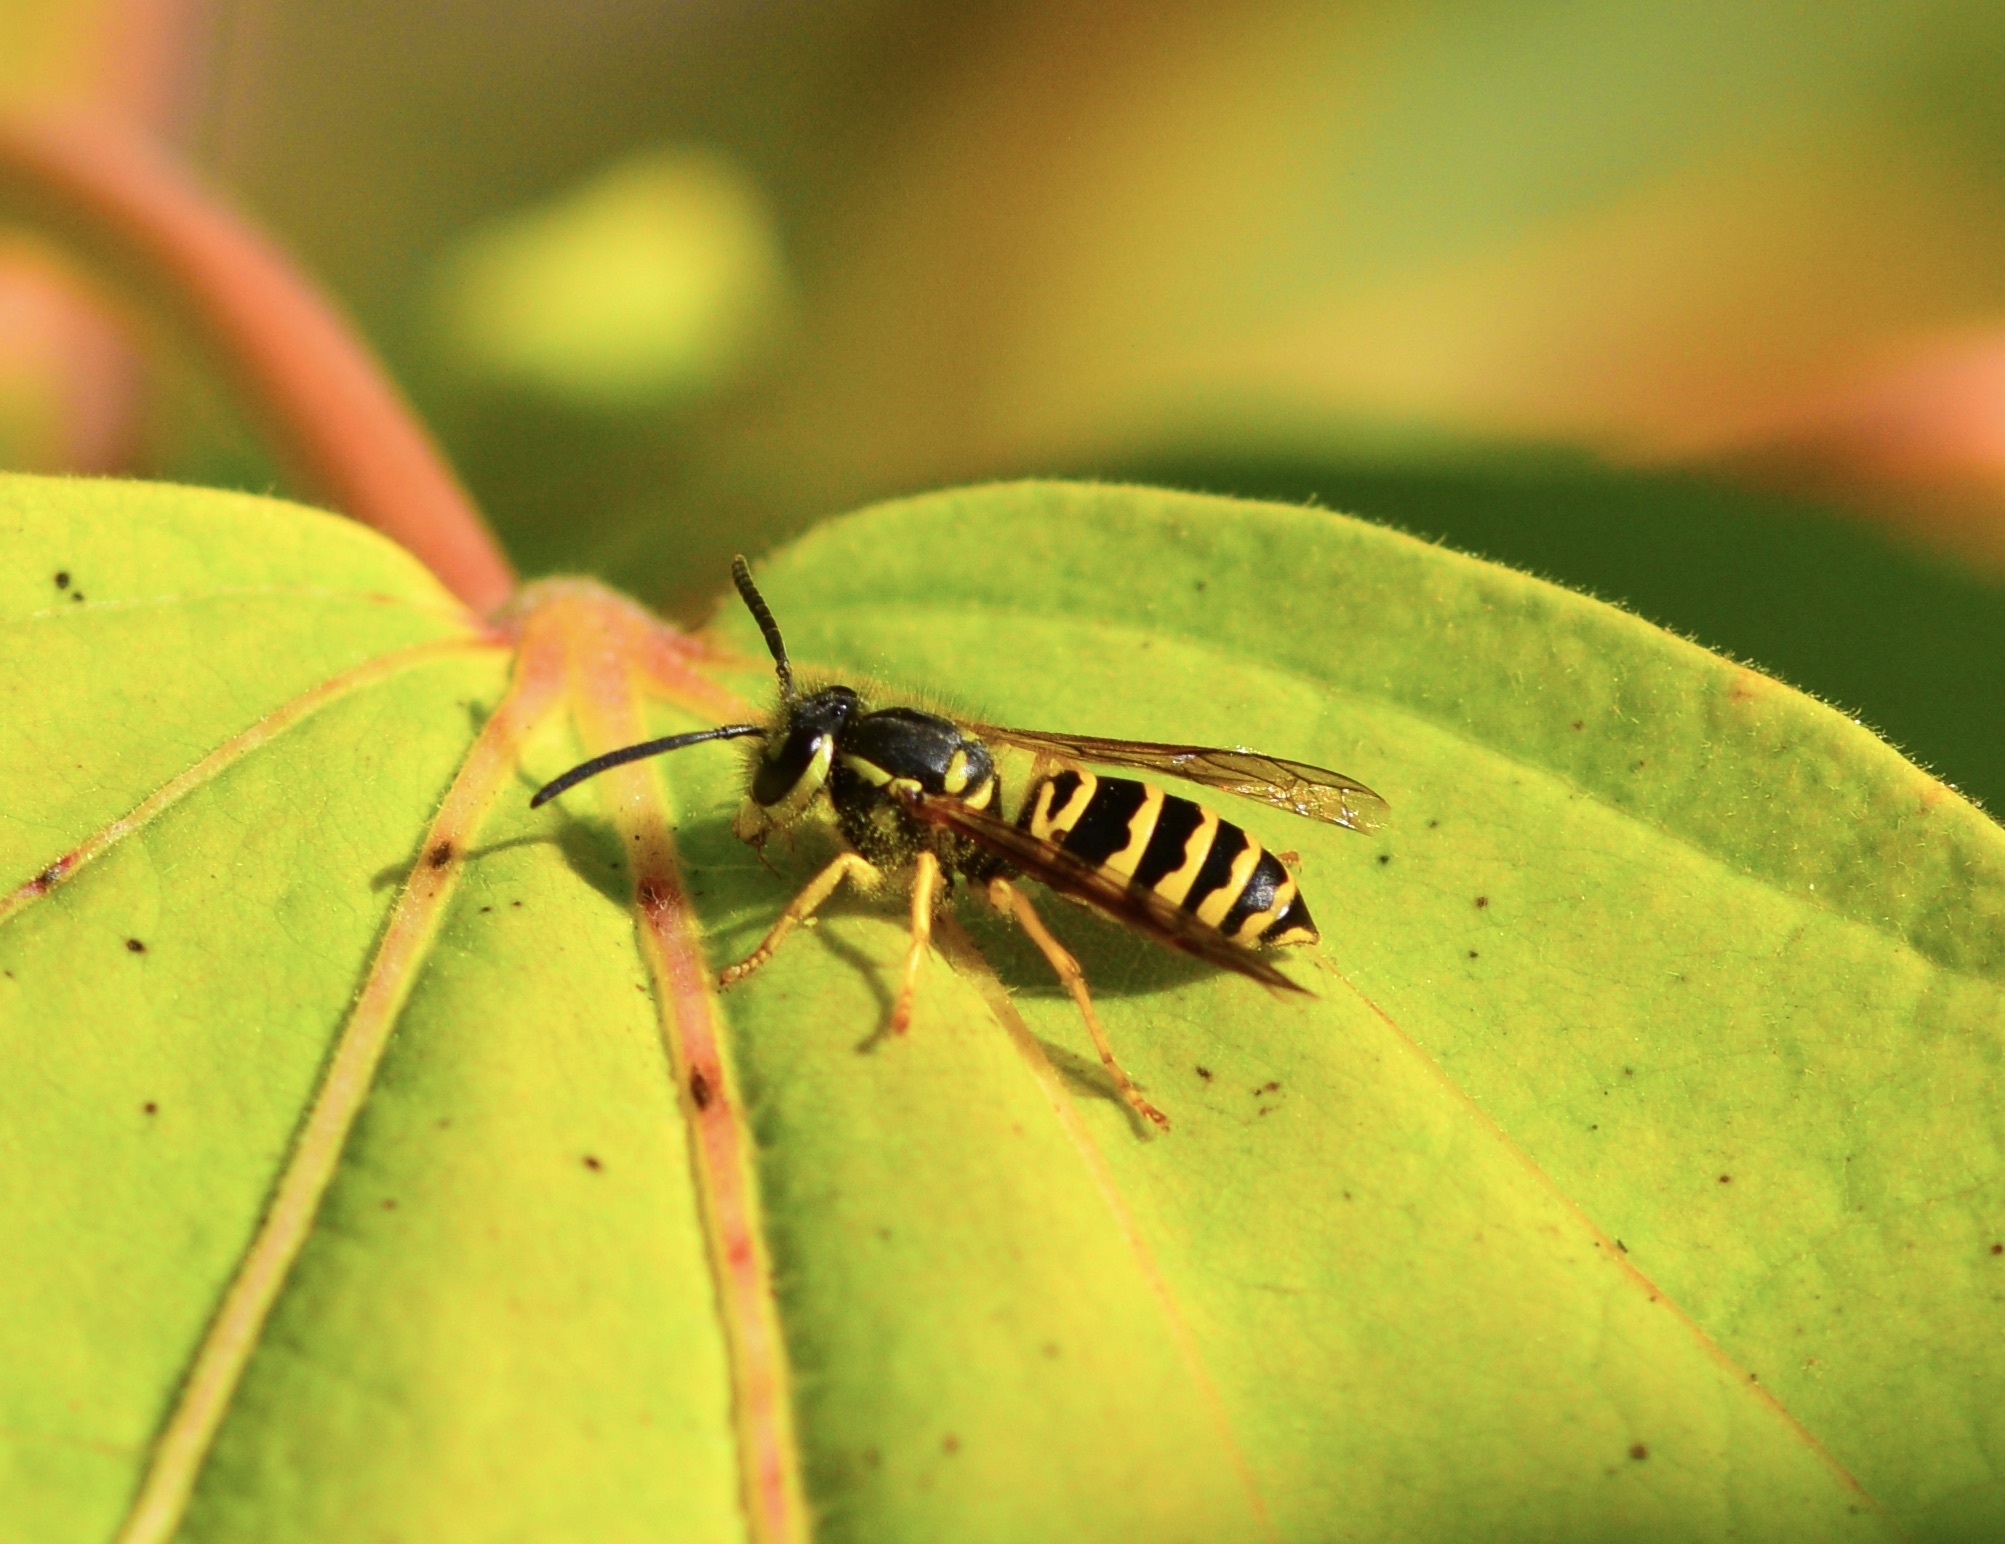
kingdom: Animalia
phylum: Arthropoda
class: Insecta
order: Hymenoptera
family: Vespidae
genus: Vespula
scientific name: Vespula maculifrons
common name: Eastern yellowjacket
